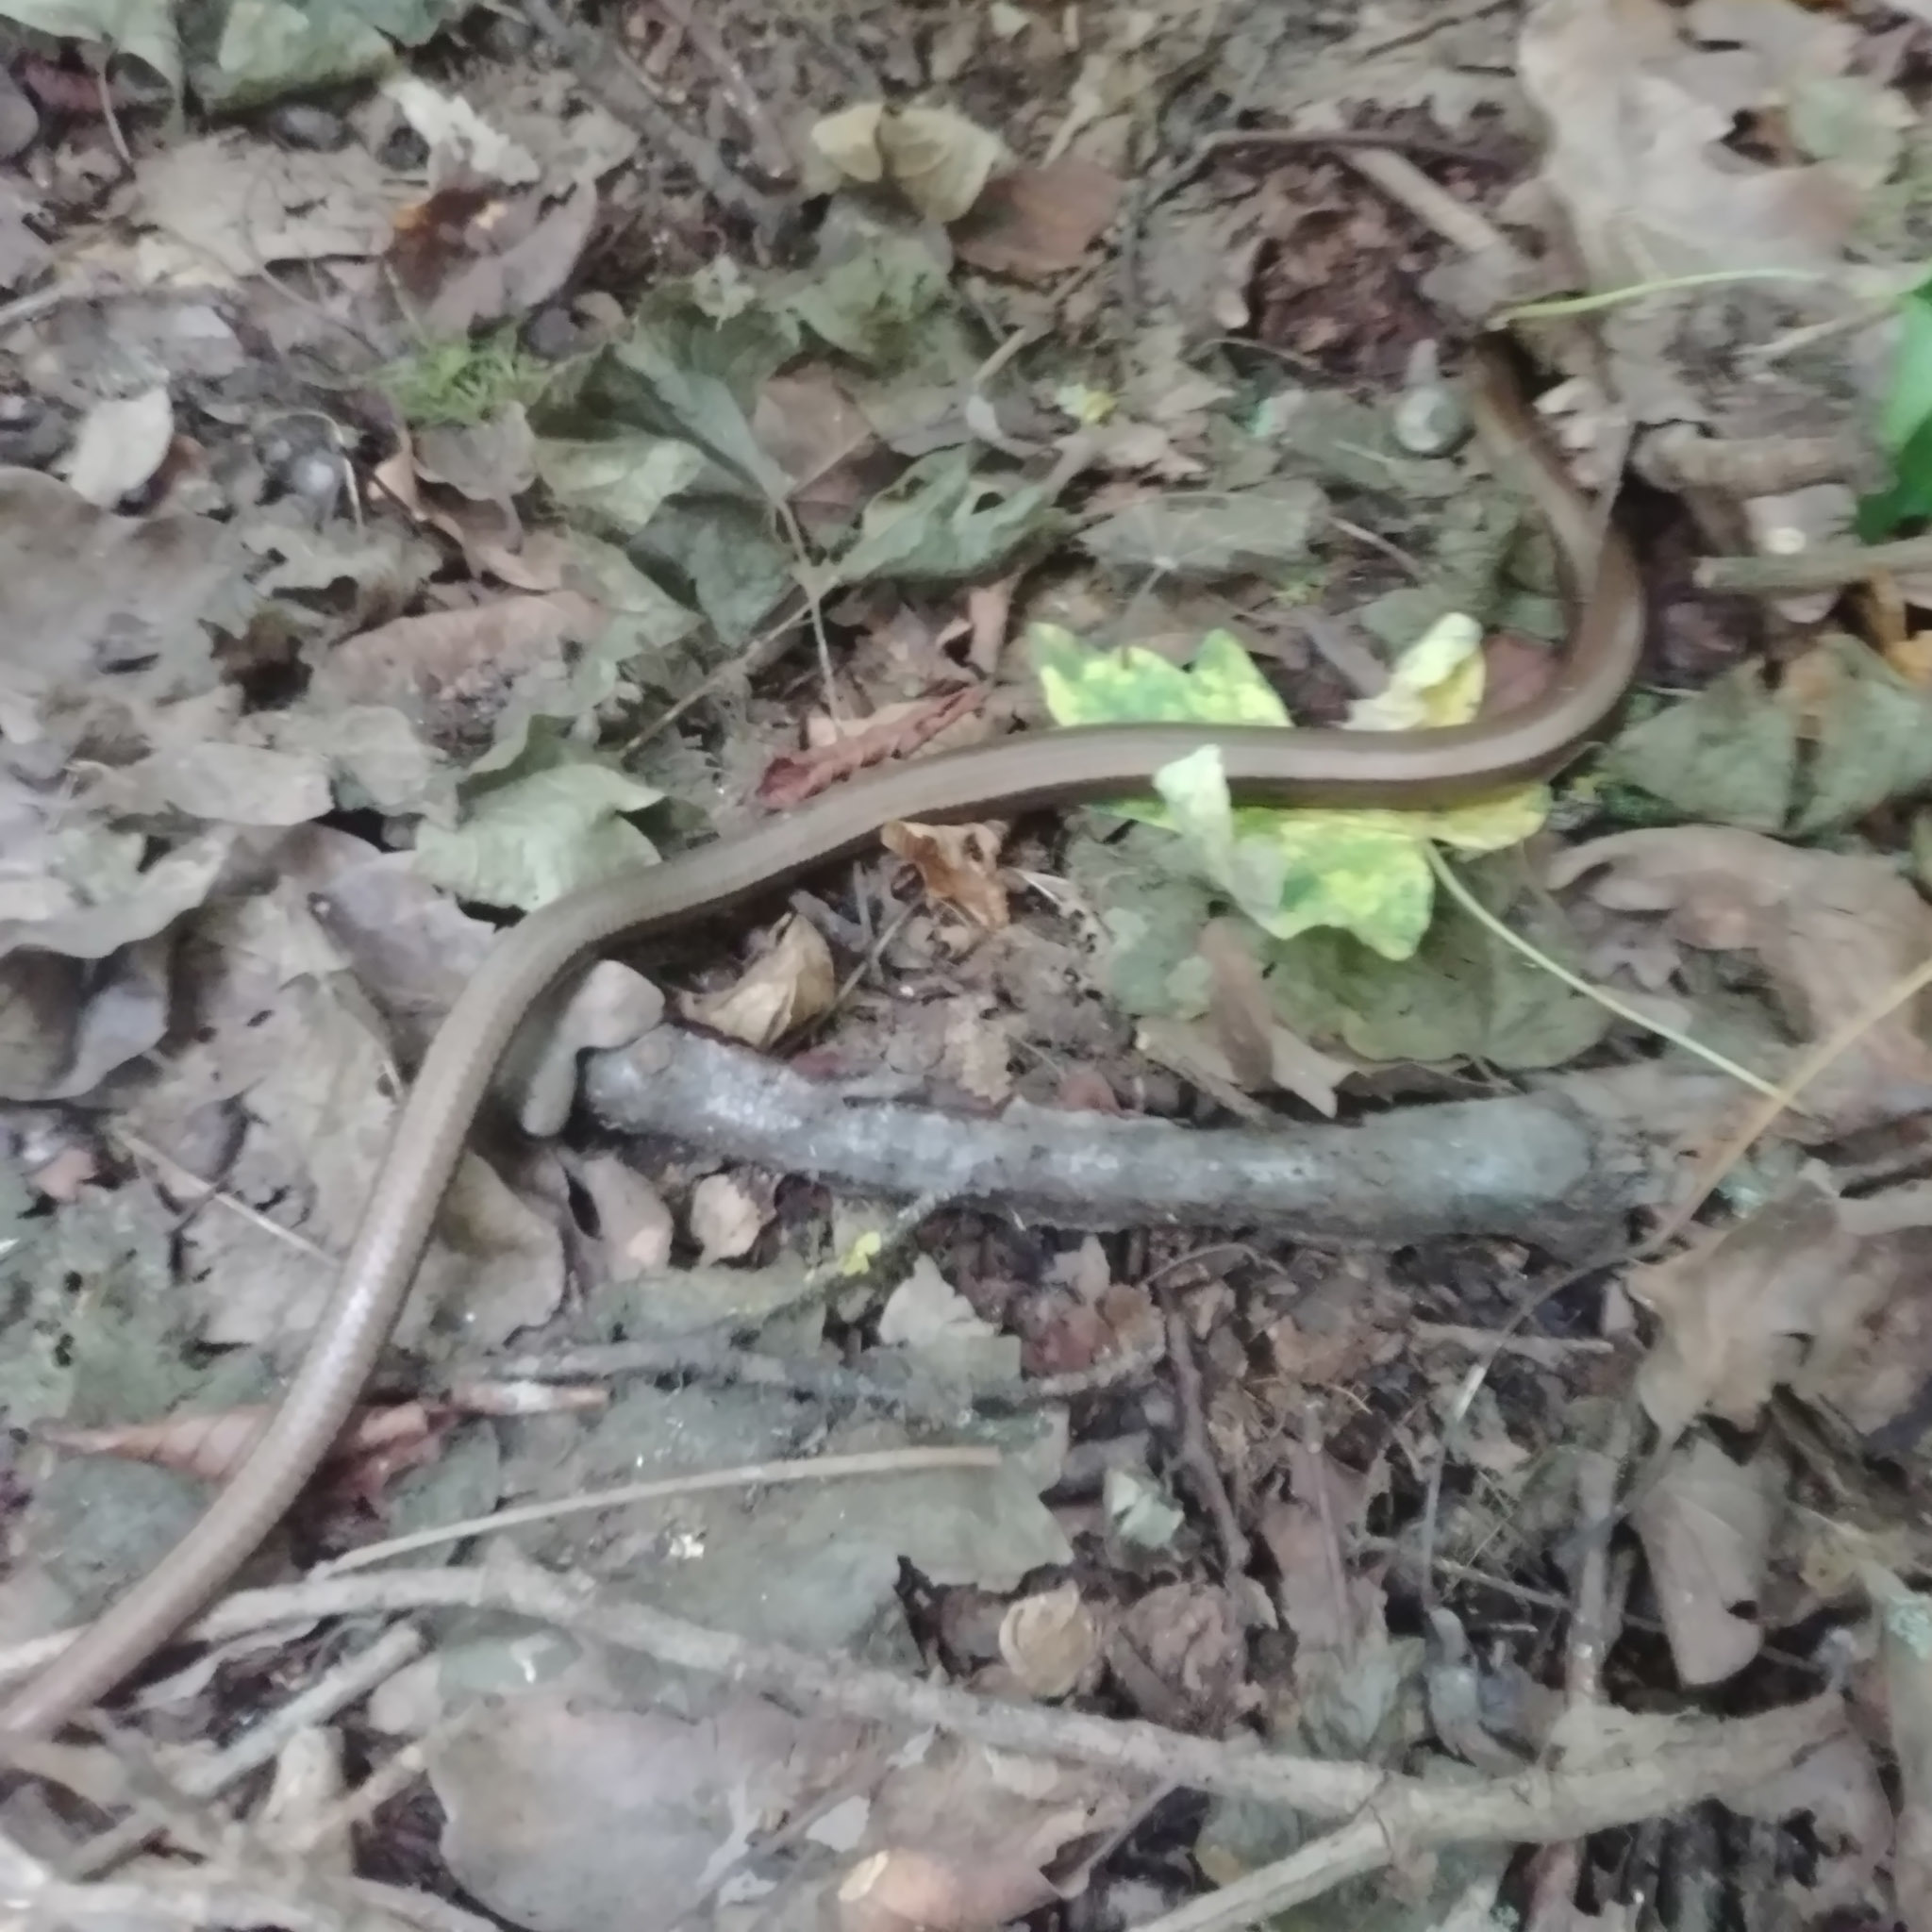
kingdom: Animalia
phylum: Chordata
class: Squamata
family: Anguidae
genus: Anguis
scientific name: Anguis fragilis
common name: Slow worm
